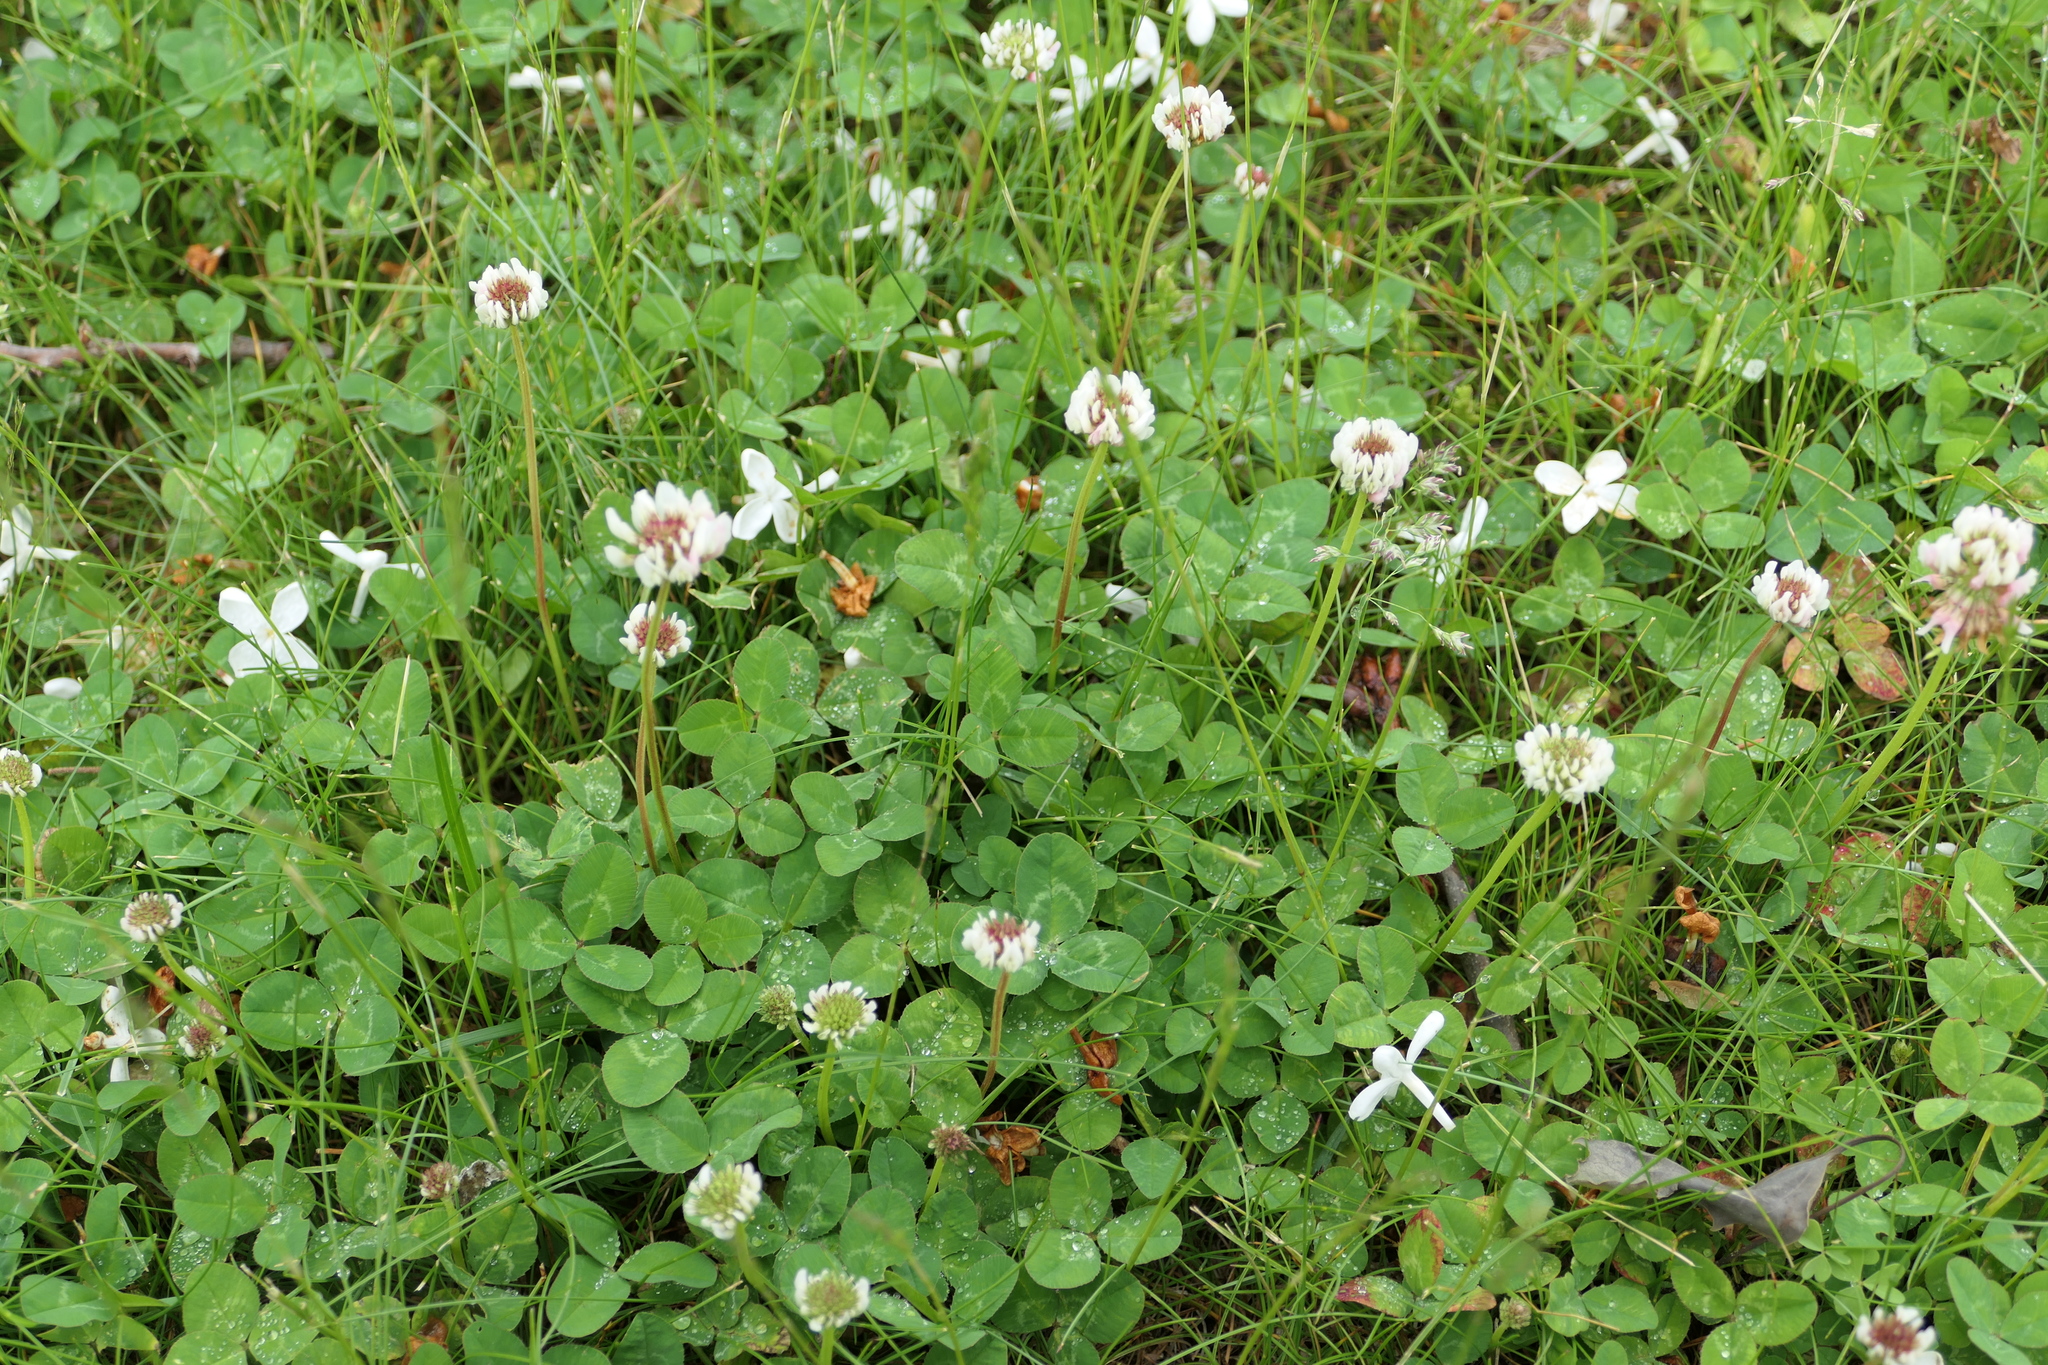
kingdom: Plantae
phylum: Tracheophyta
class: Magnoliopsida
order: Fabales
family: Fabaceae
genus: Trifolium
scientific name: Trifolium repens
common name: White clover
